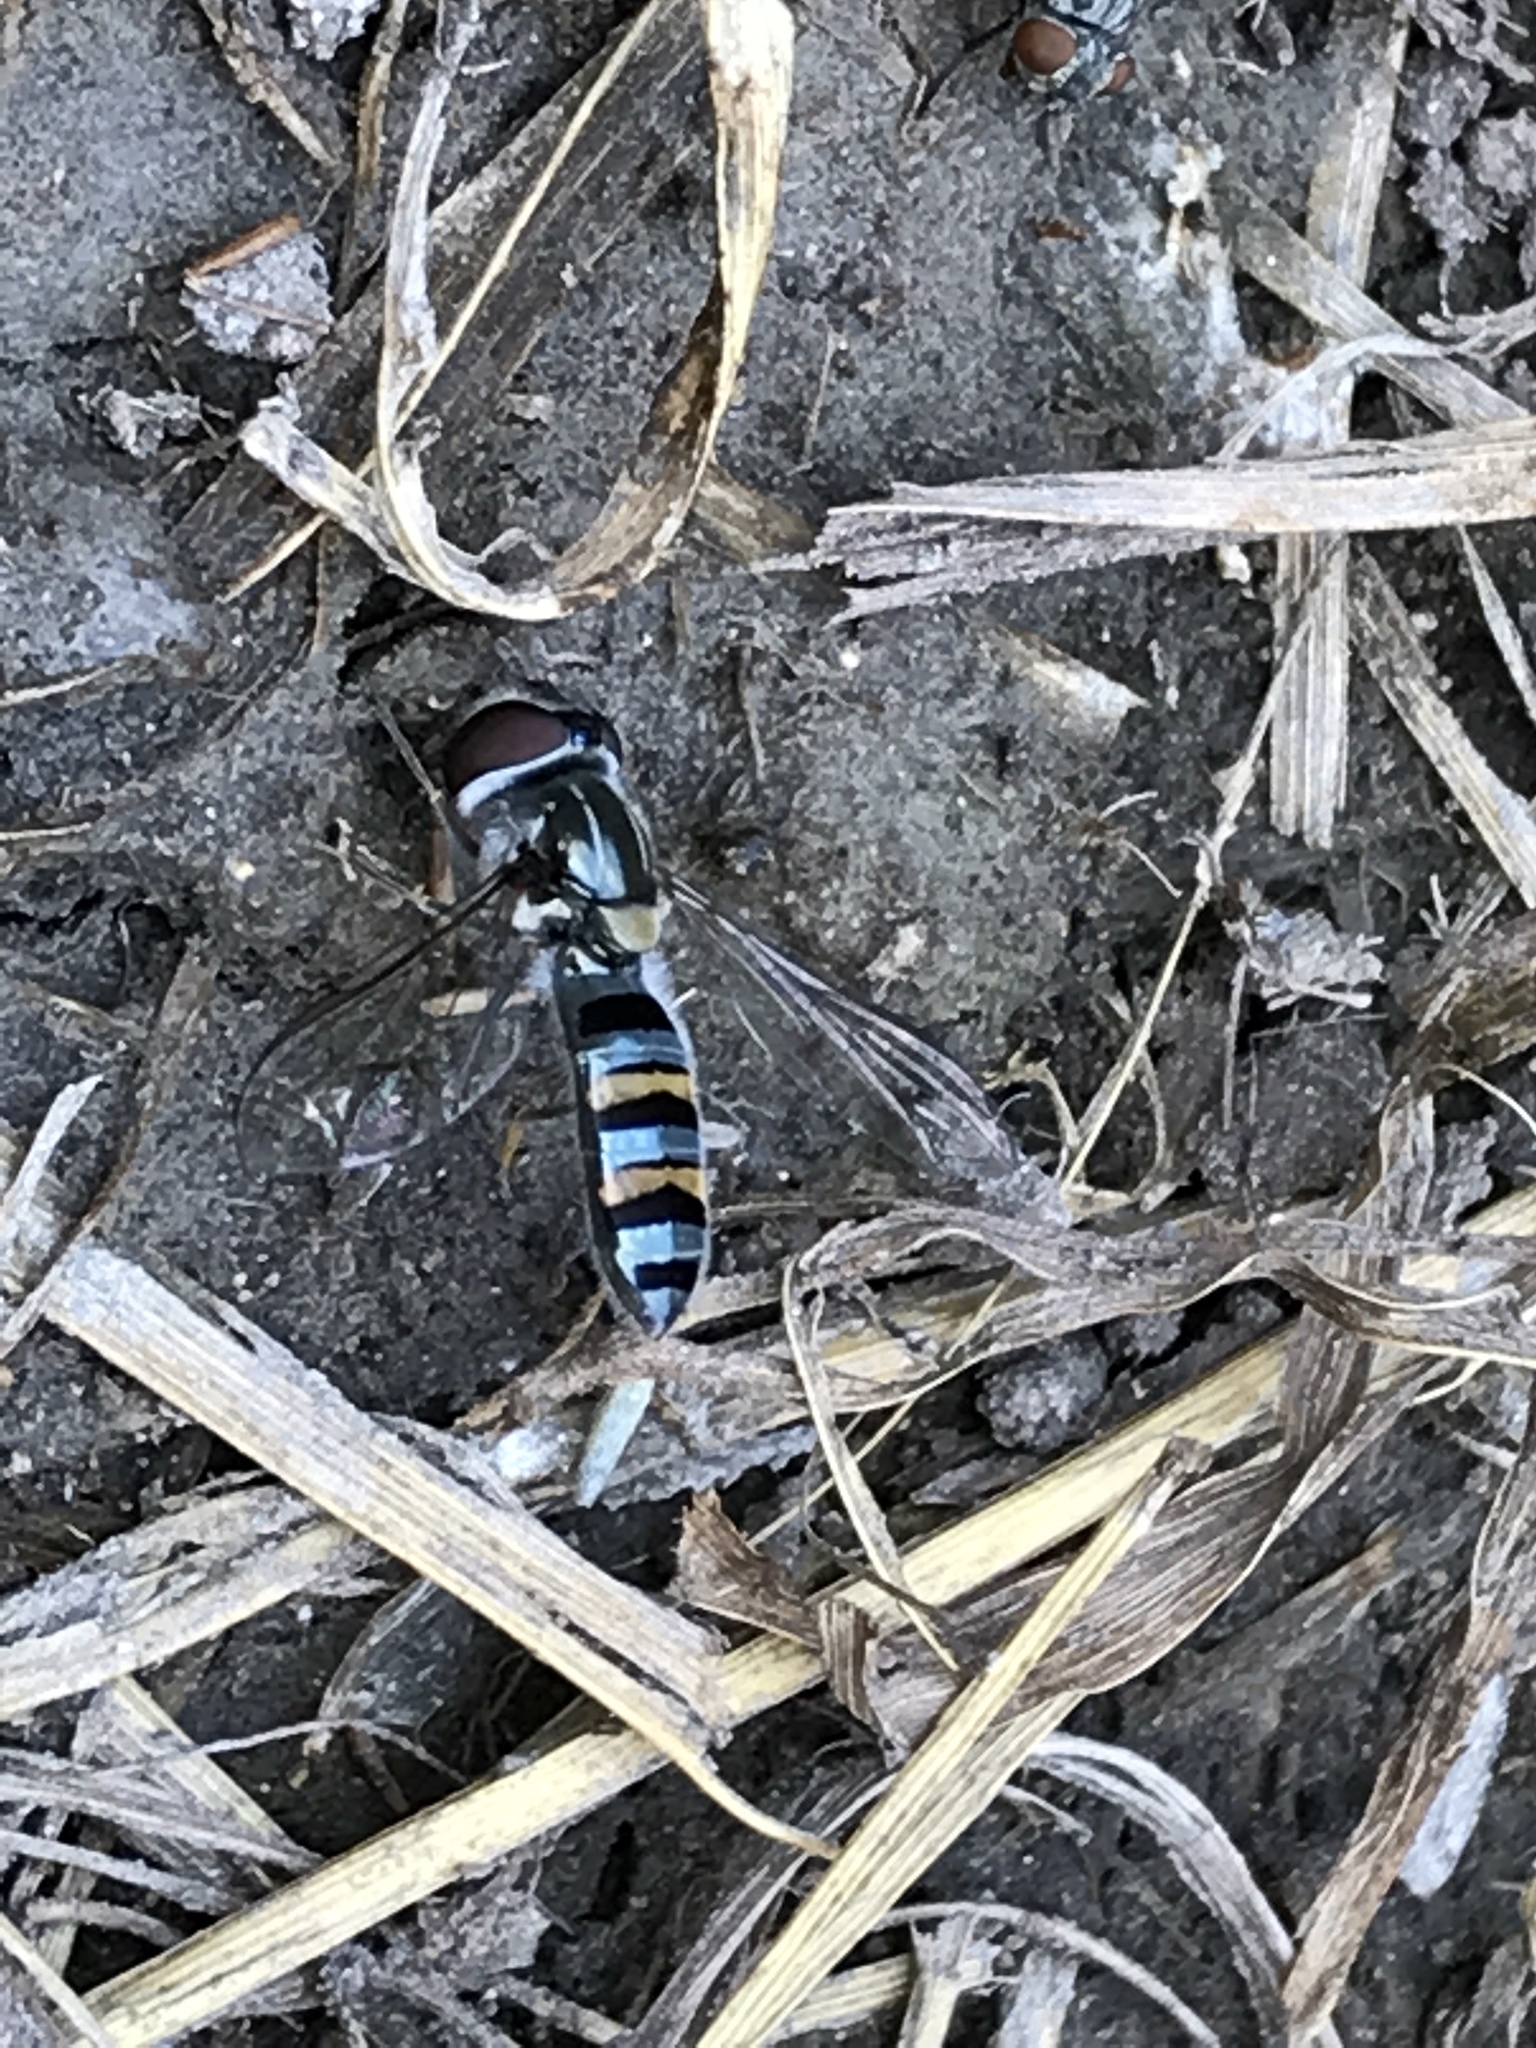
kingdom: Animalia
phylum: Arthropoda
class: Insecta
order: Diptera
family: Syrphidae
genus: Pseudoscaeva
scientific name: Pseudoscaeva diversifasciata
